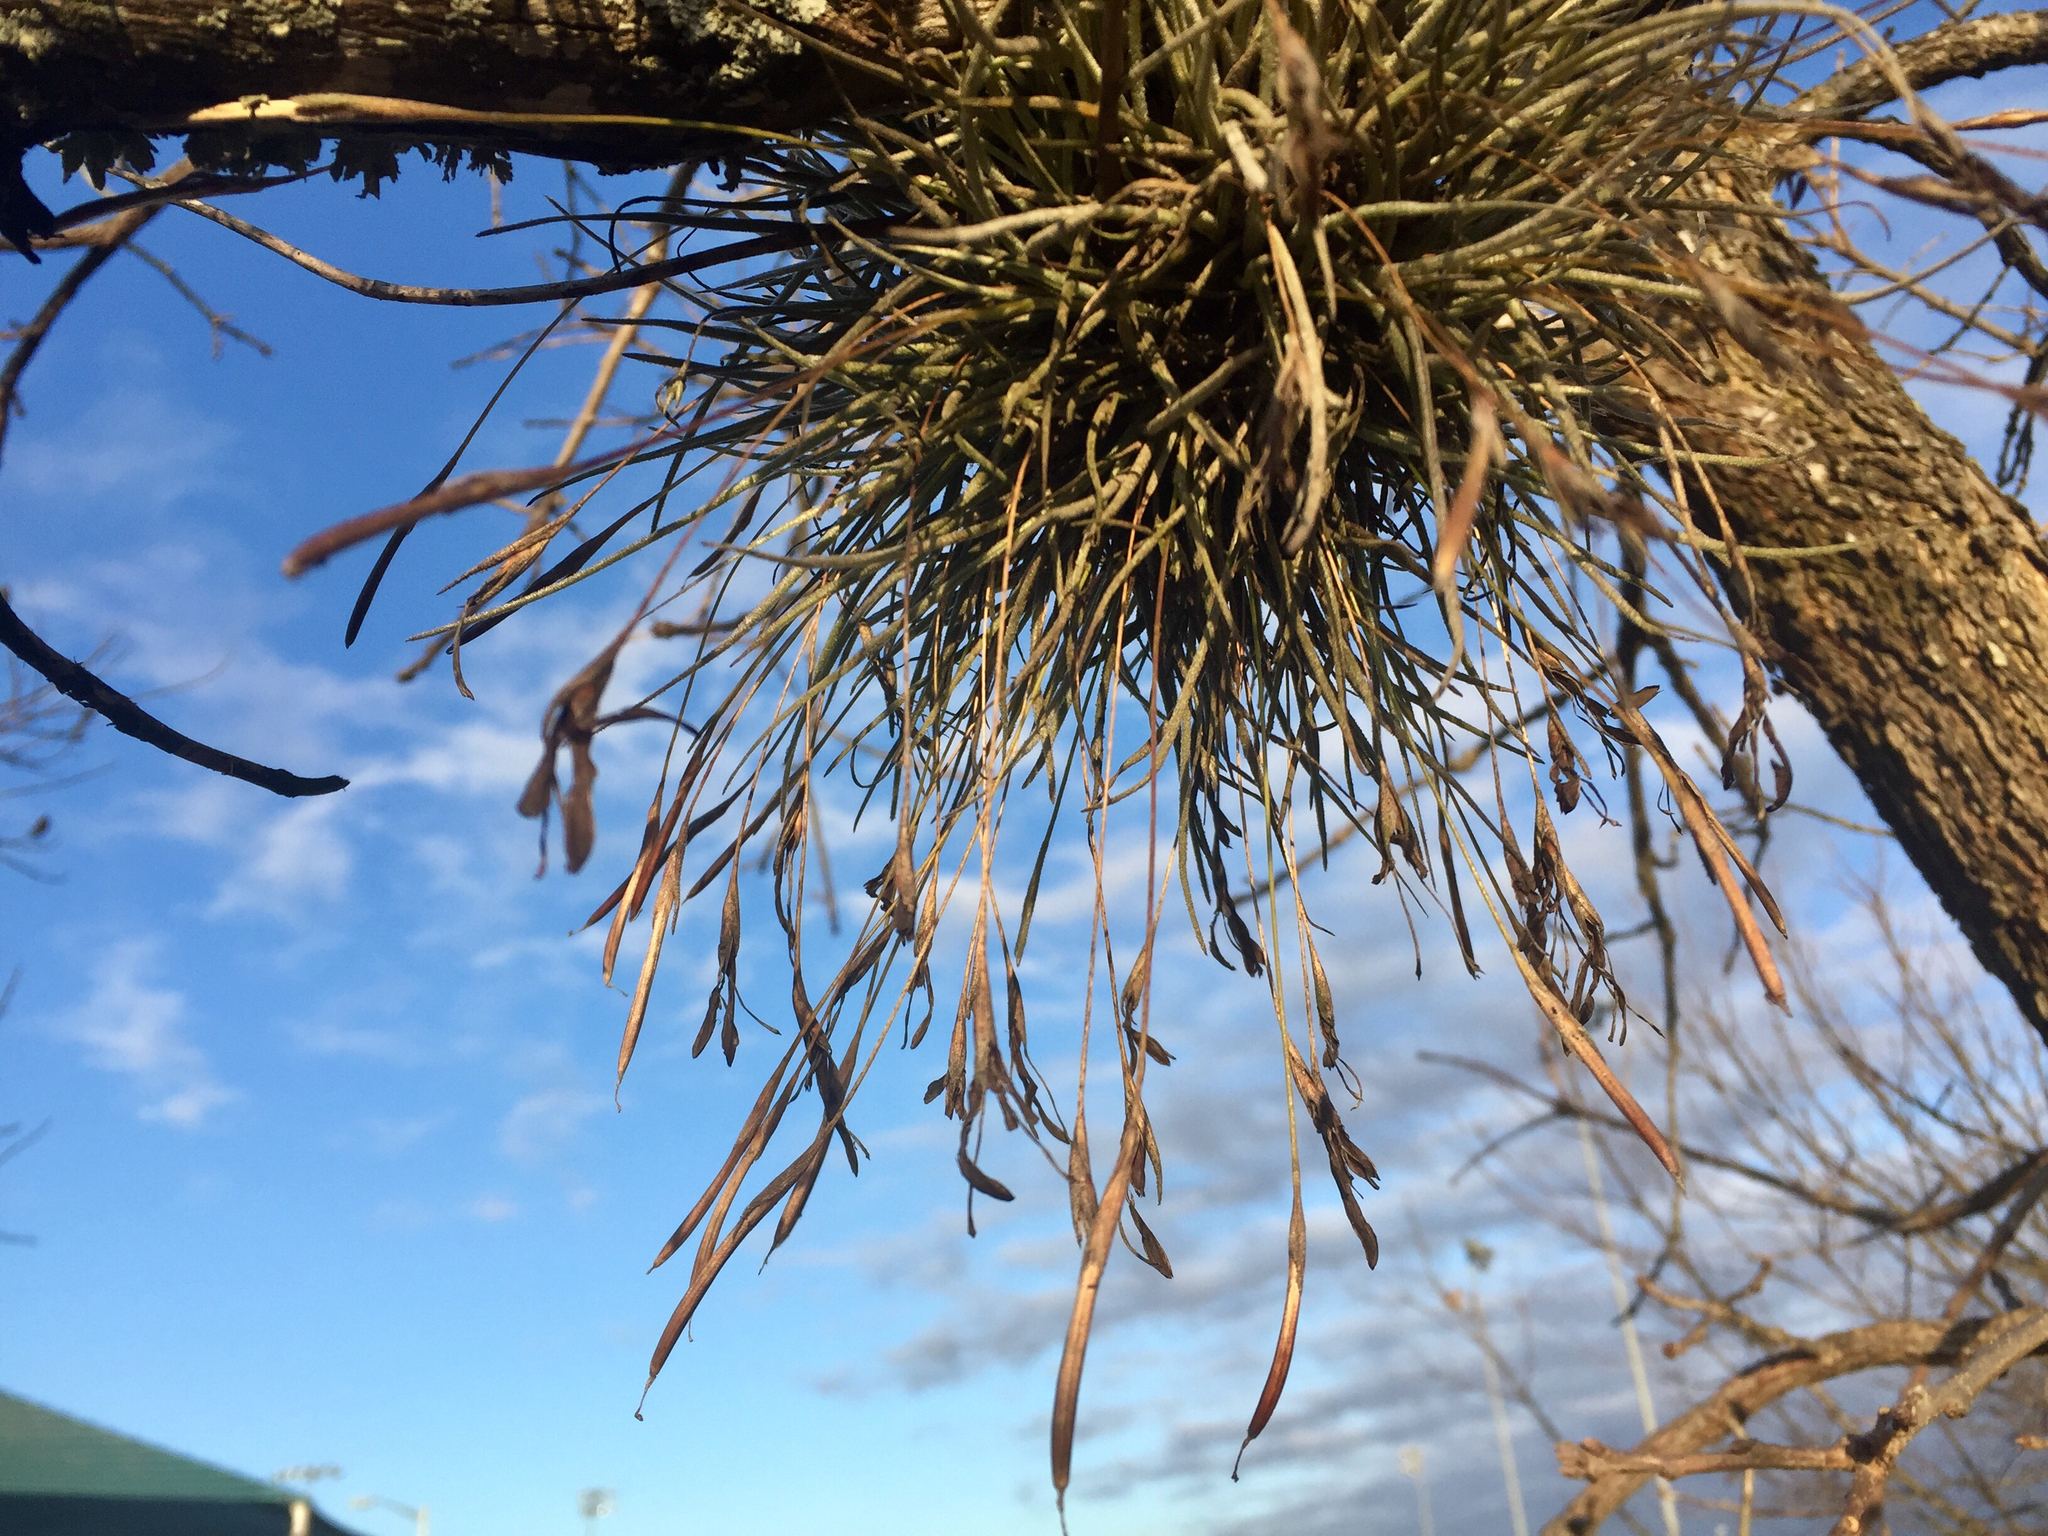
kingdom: Plantae
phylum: Tracheophyta
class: Liliopsida
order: Poales
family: Bromeliaceae
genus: Tillandsia
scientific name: Tillandsia recurvata
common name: Small ballmoss
